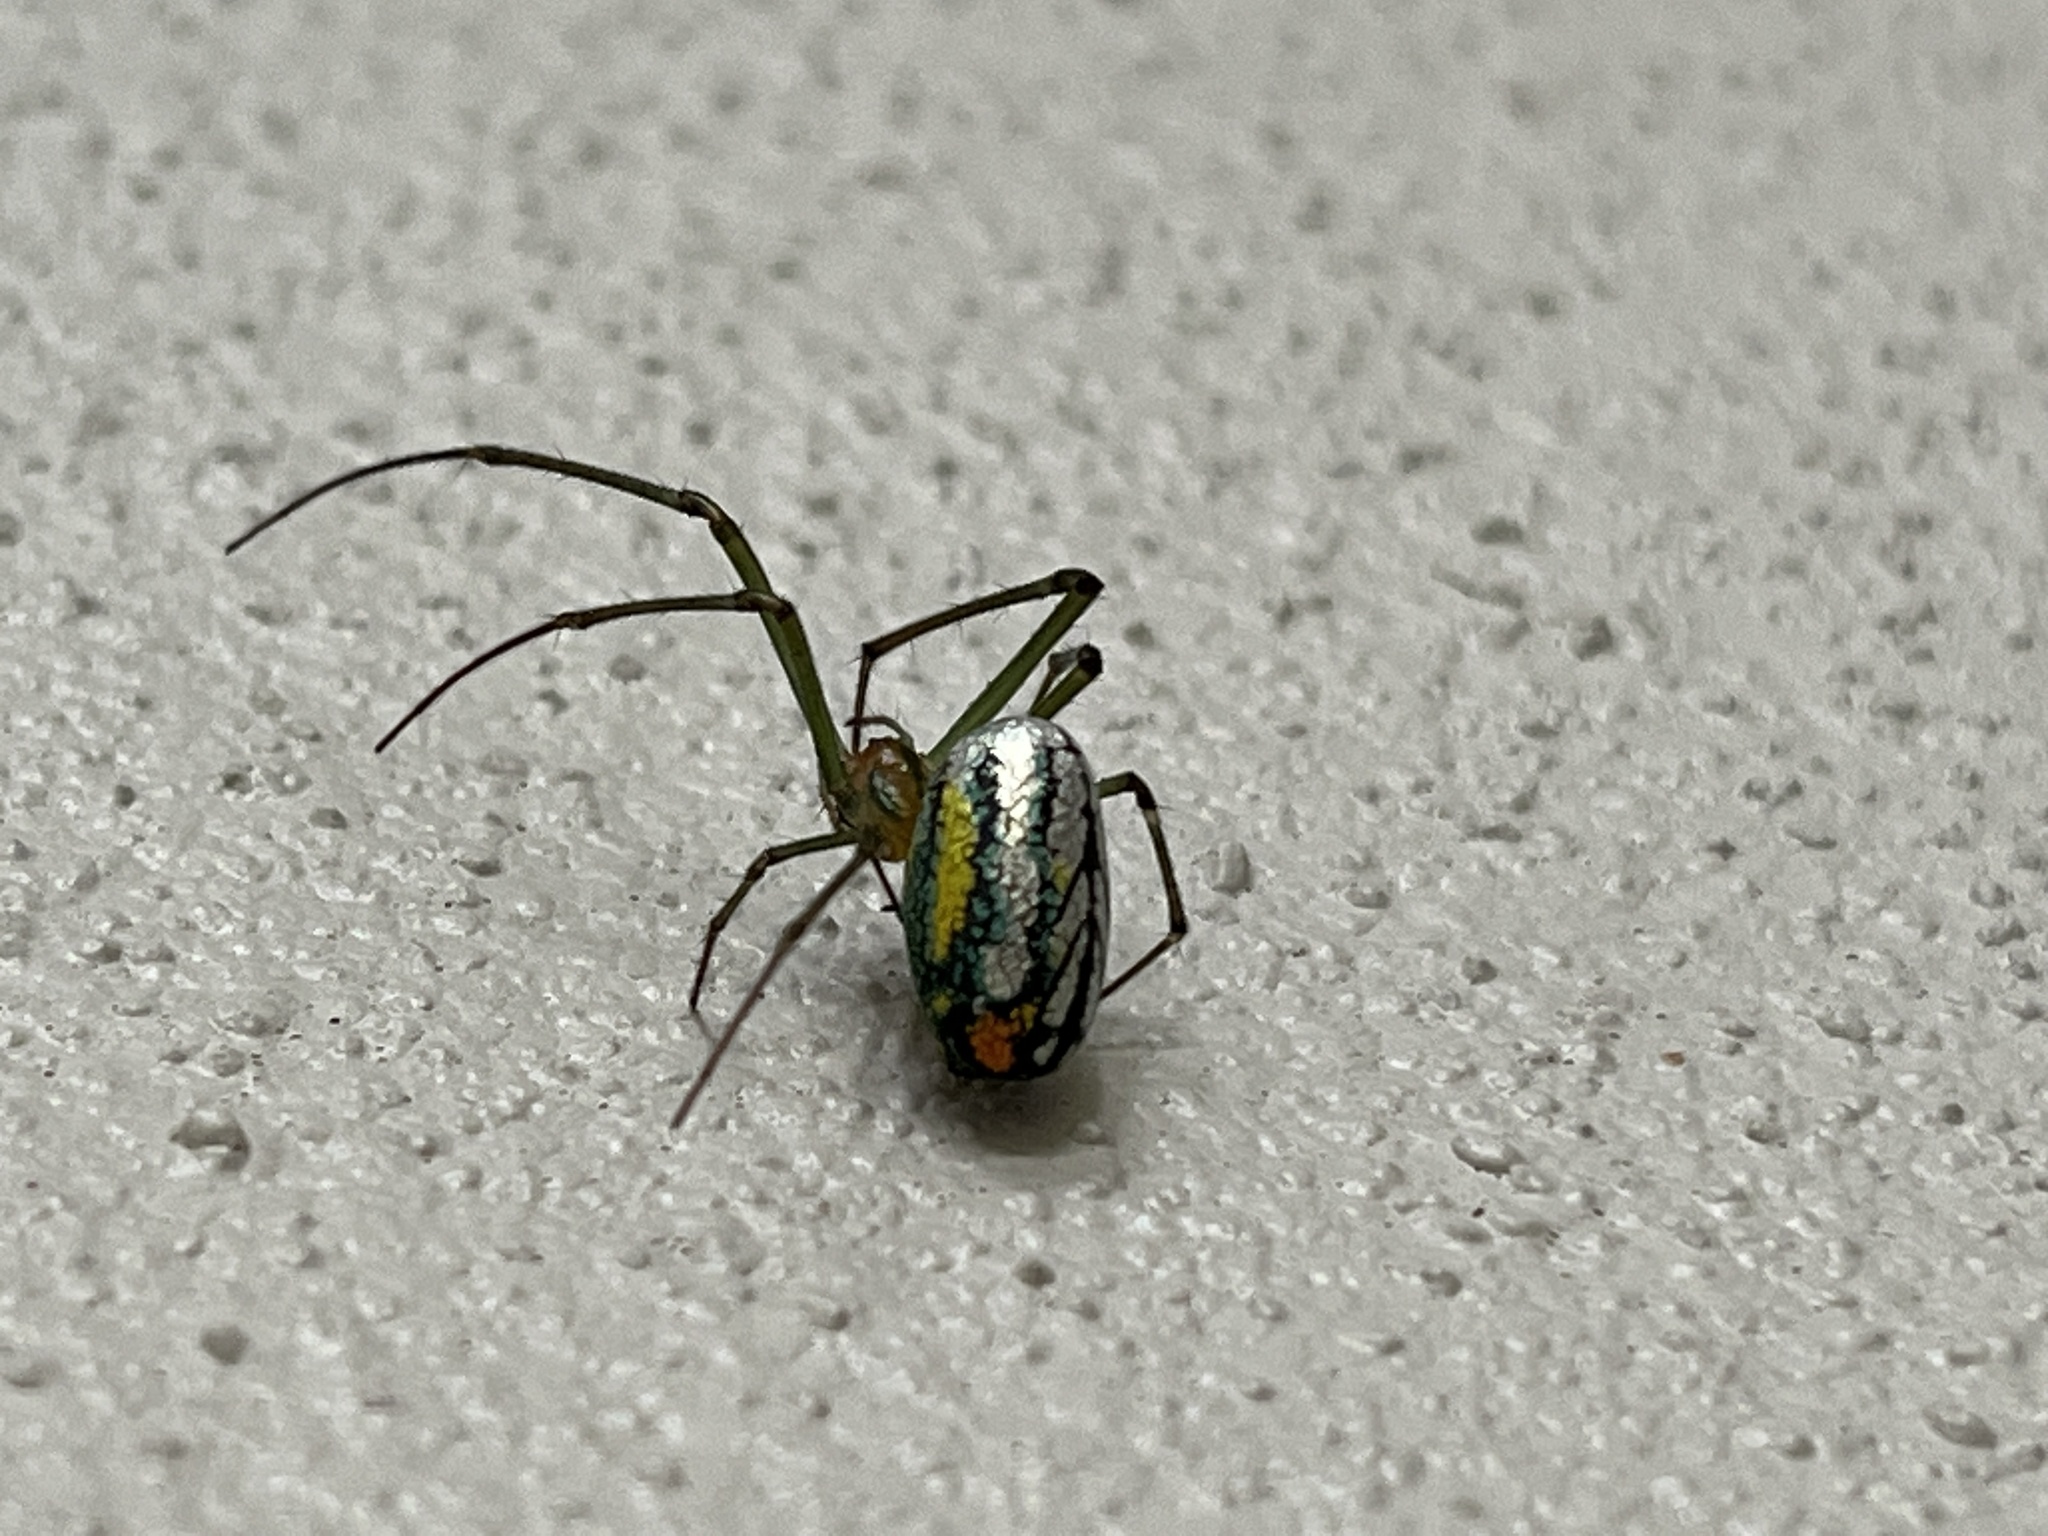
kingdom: Animalia
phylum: Arthropoda
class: Arachnida
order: Araneae
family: Tetragnathidae
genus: Leucauge
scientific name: Leucauge argyrobapta
